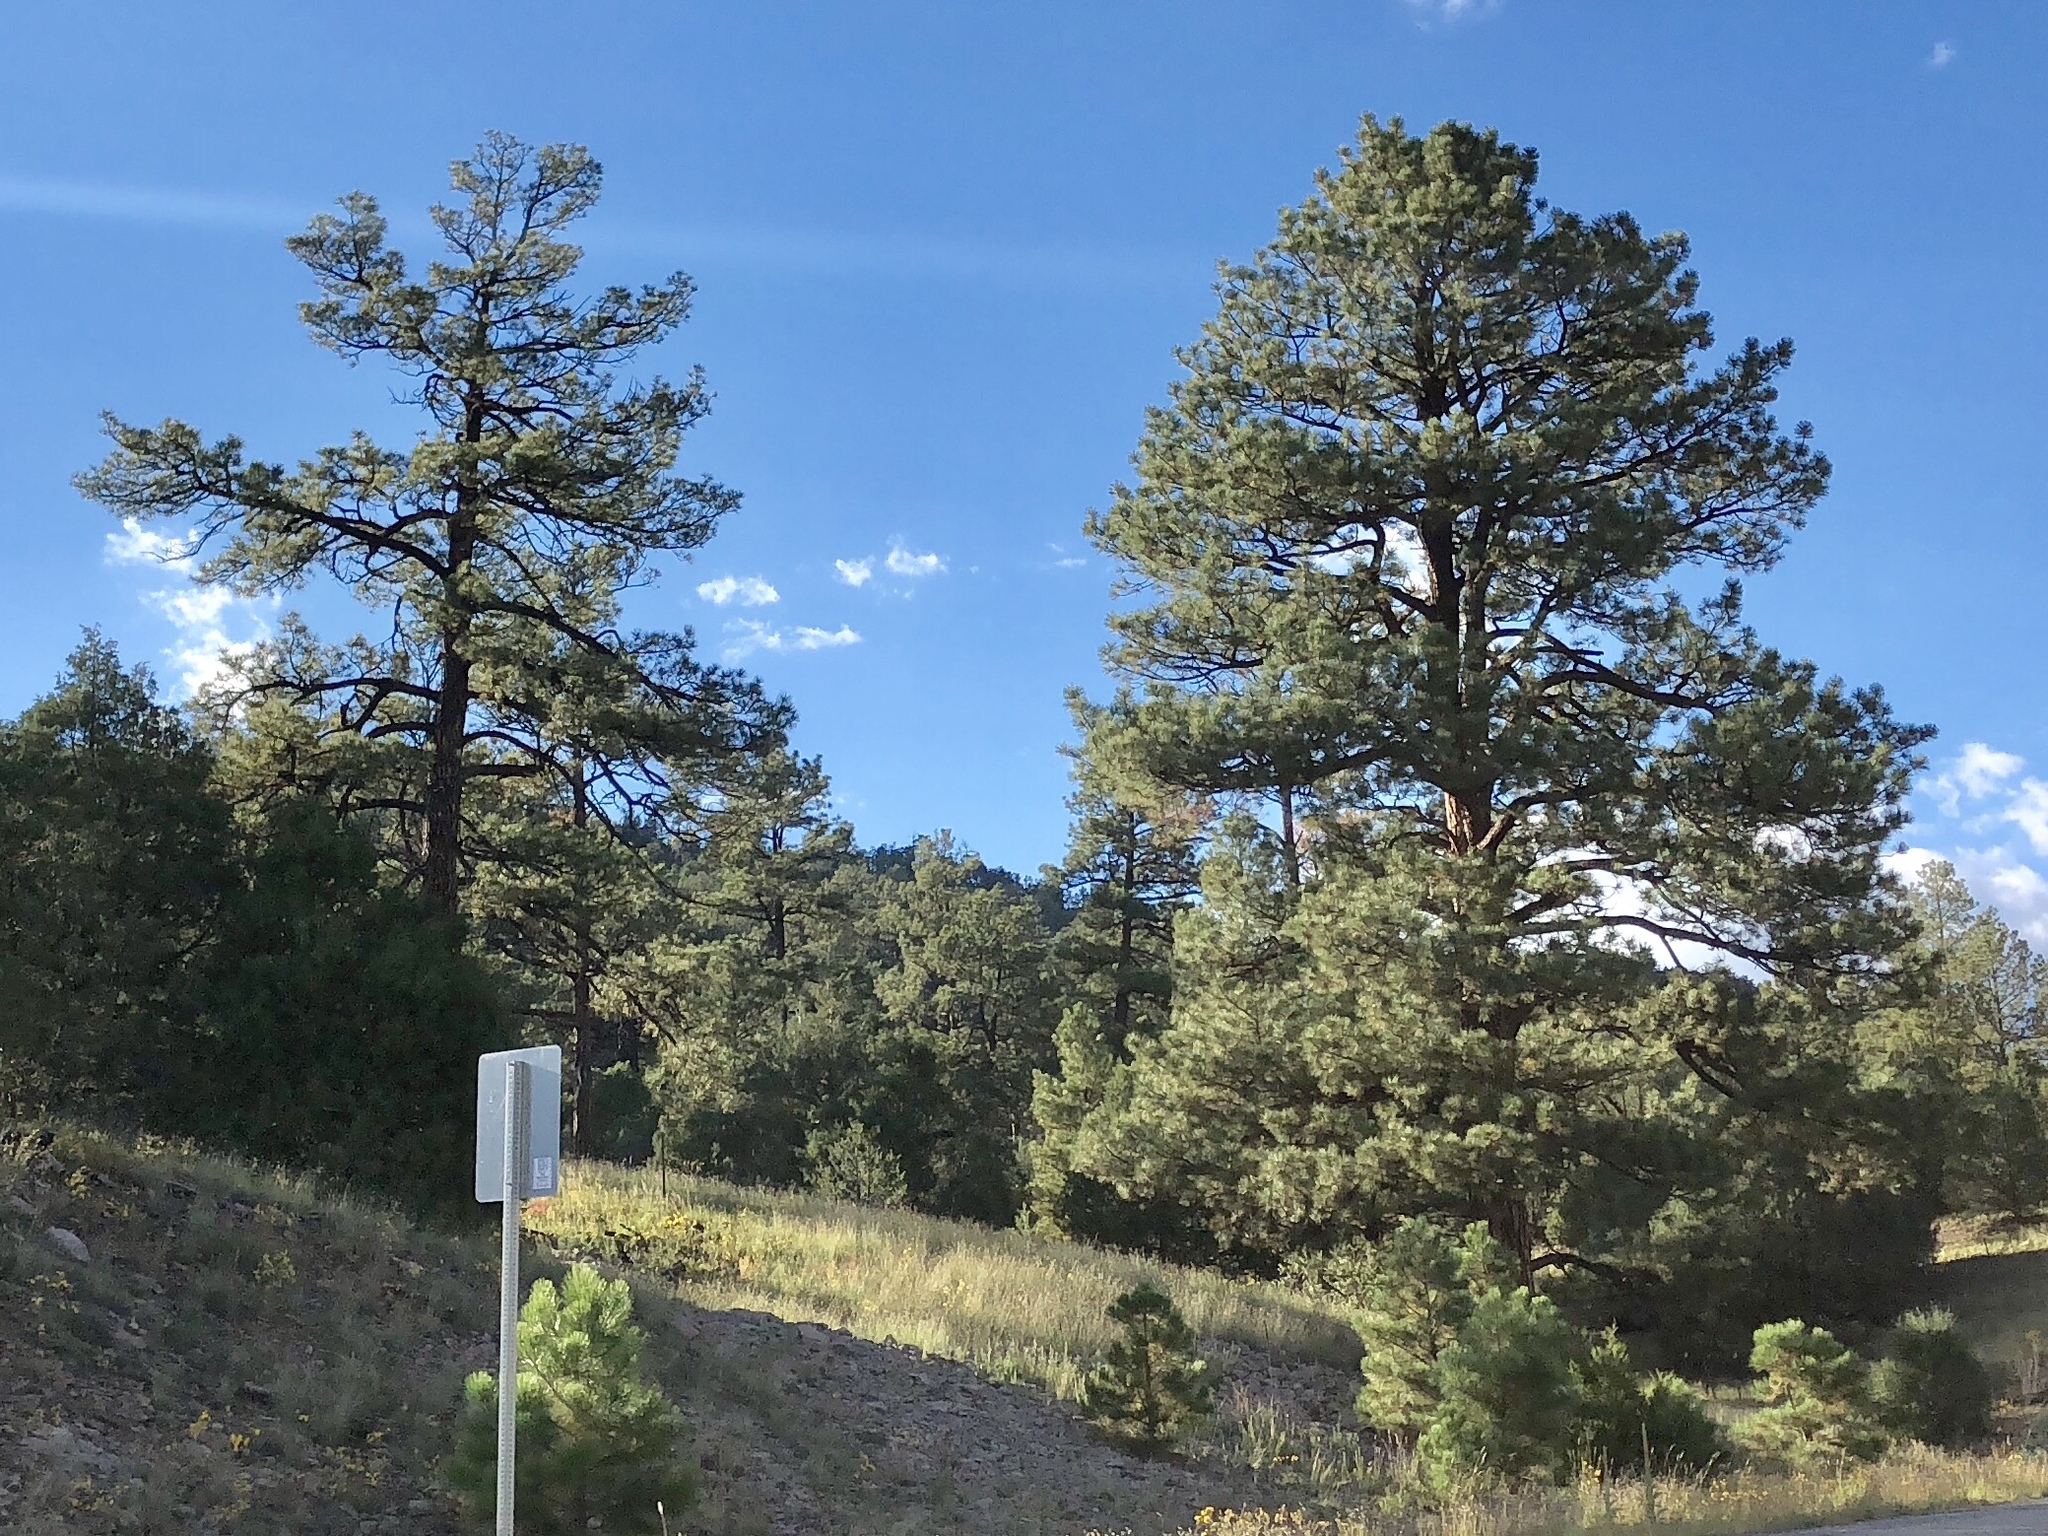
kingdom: Plantae
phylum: Tracheophyta
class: Pinopsida
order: Pinales
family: Pinaceae
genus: Pinus
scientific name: Pinus ponderosa
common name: Western yellow-pine
